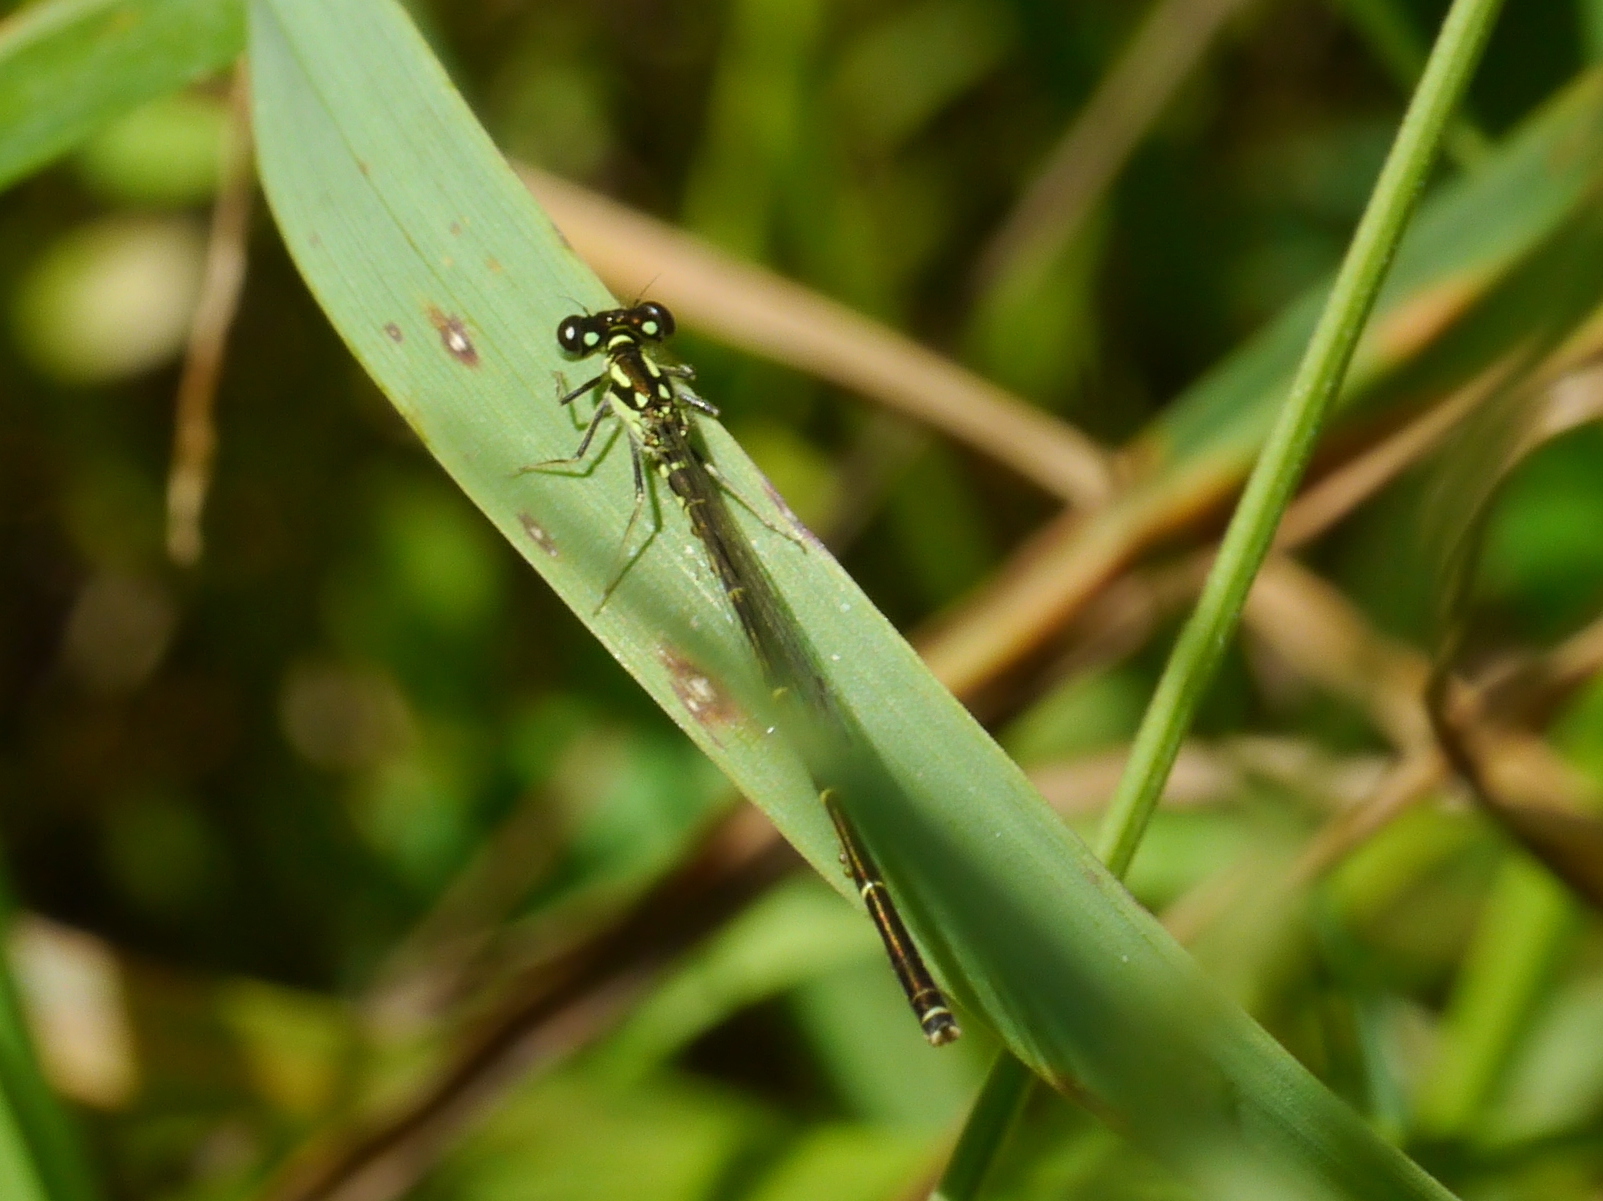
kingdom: Animalia
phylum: Arthropoda
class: Insecta
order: Odonata
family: Coenagrionidae
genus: Ischnura
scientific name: Ischnura posita
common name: Fragile forktail
